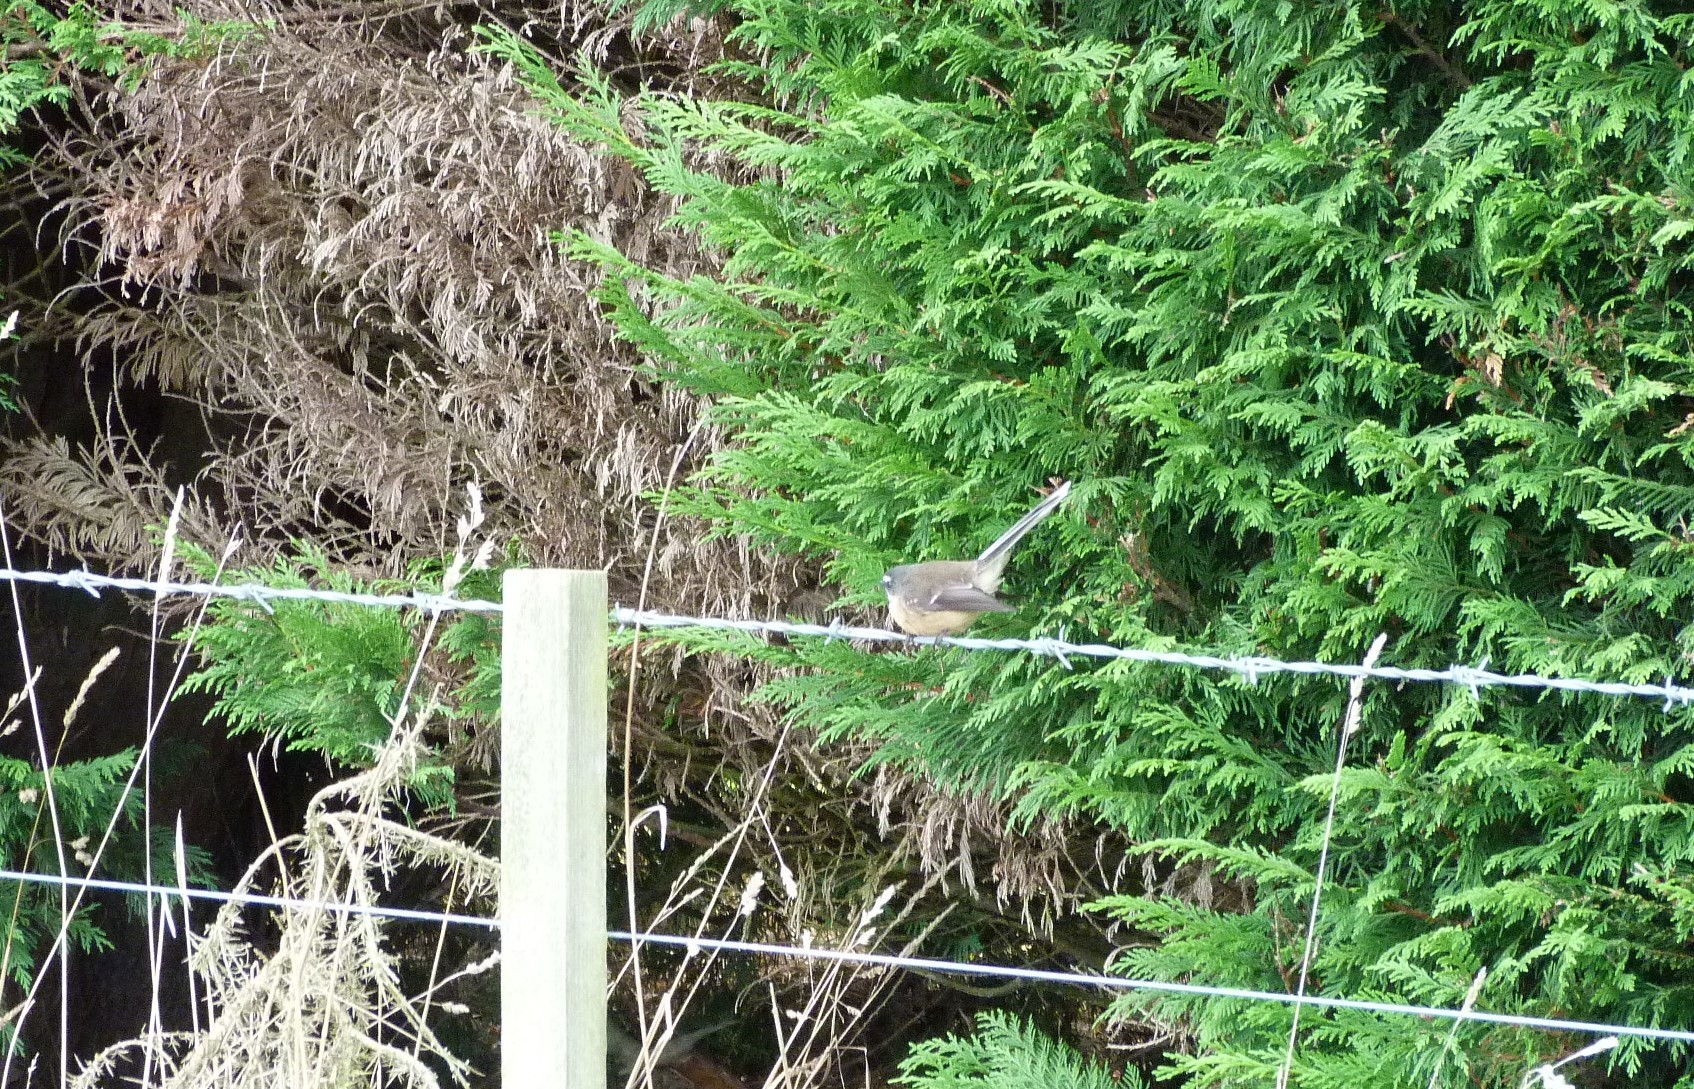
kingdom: Animalia
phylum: Chordata
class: Aves
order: Passeriformes
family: Rhipiduridae
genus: Rhipidura
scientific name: Rhipidura fuliginosa
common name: New zealand fantail
